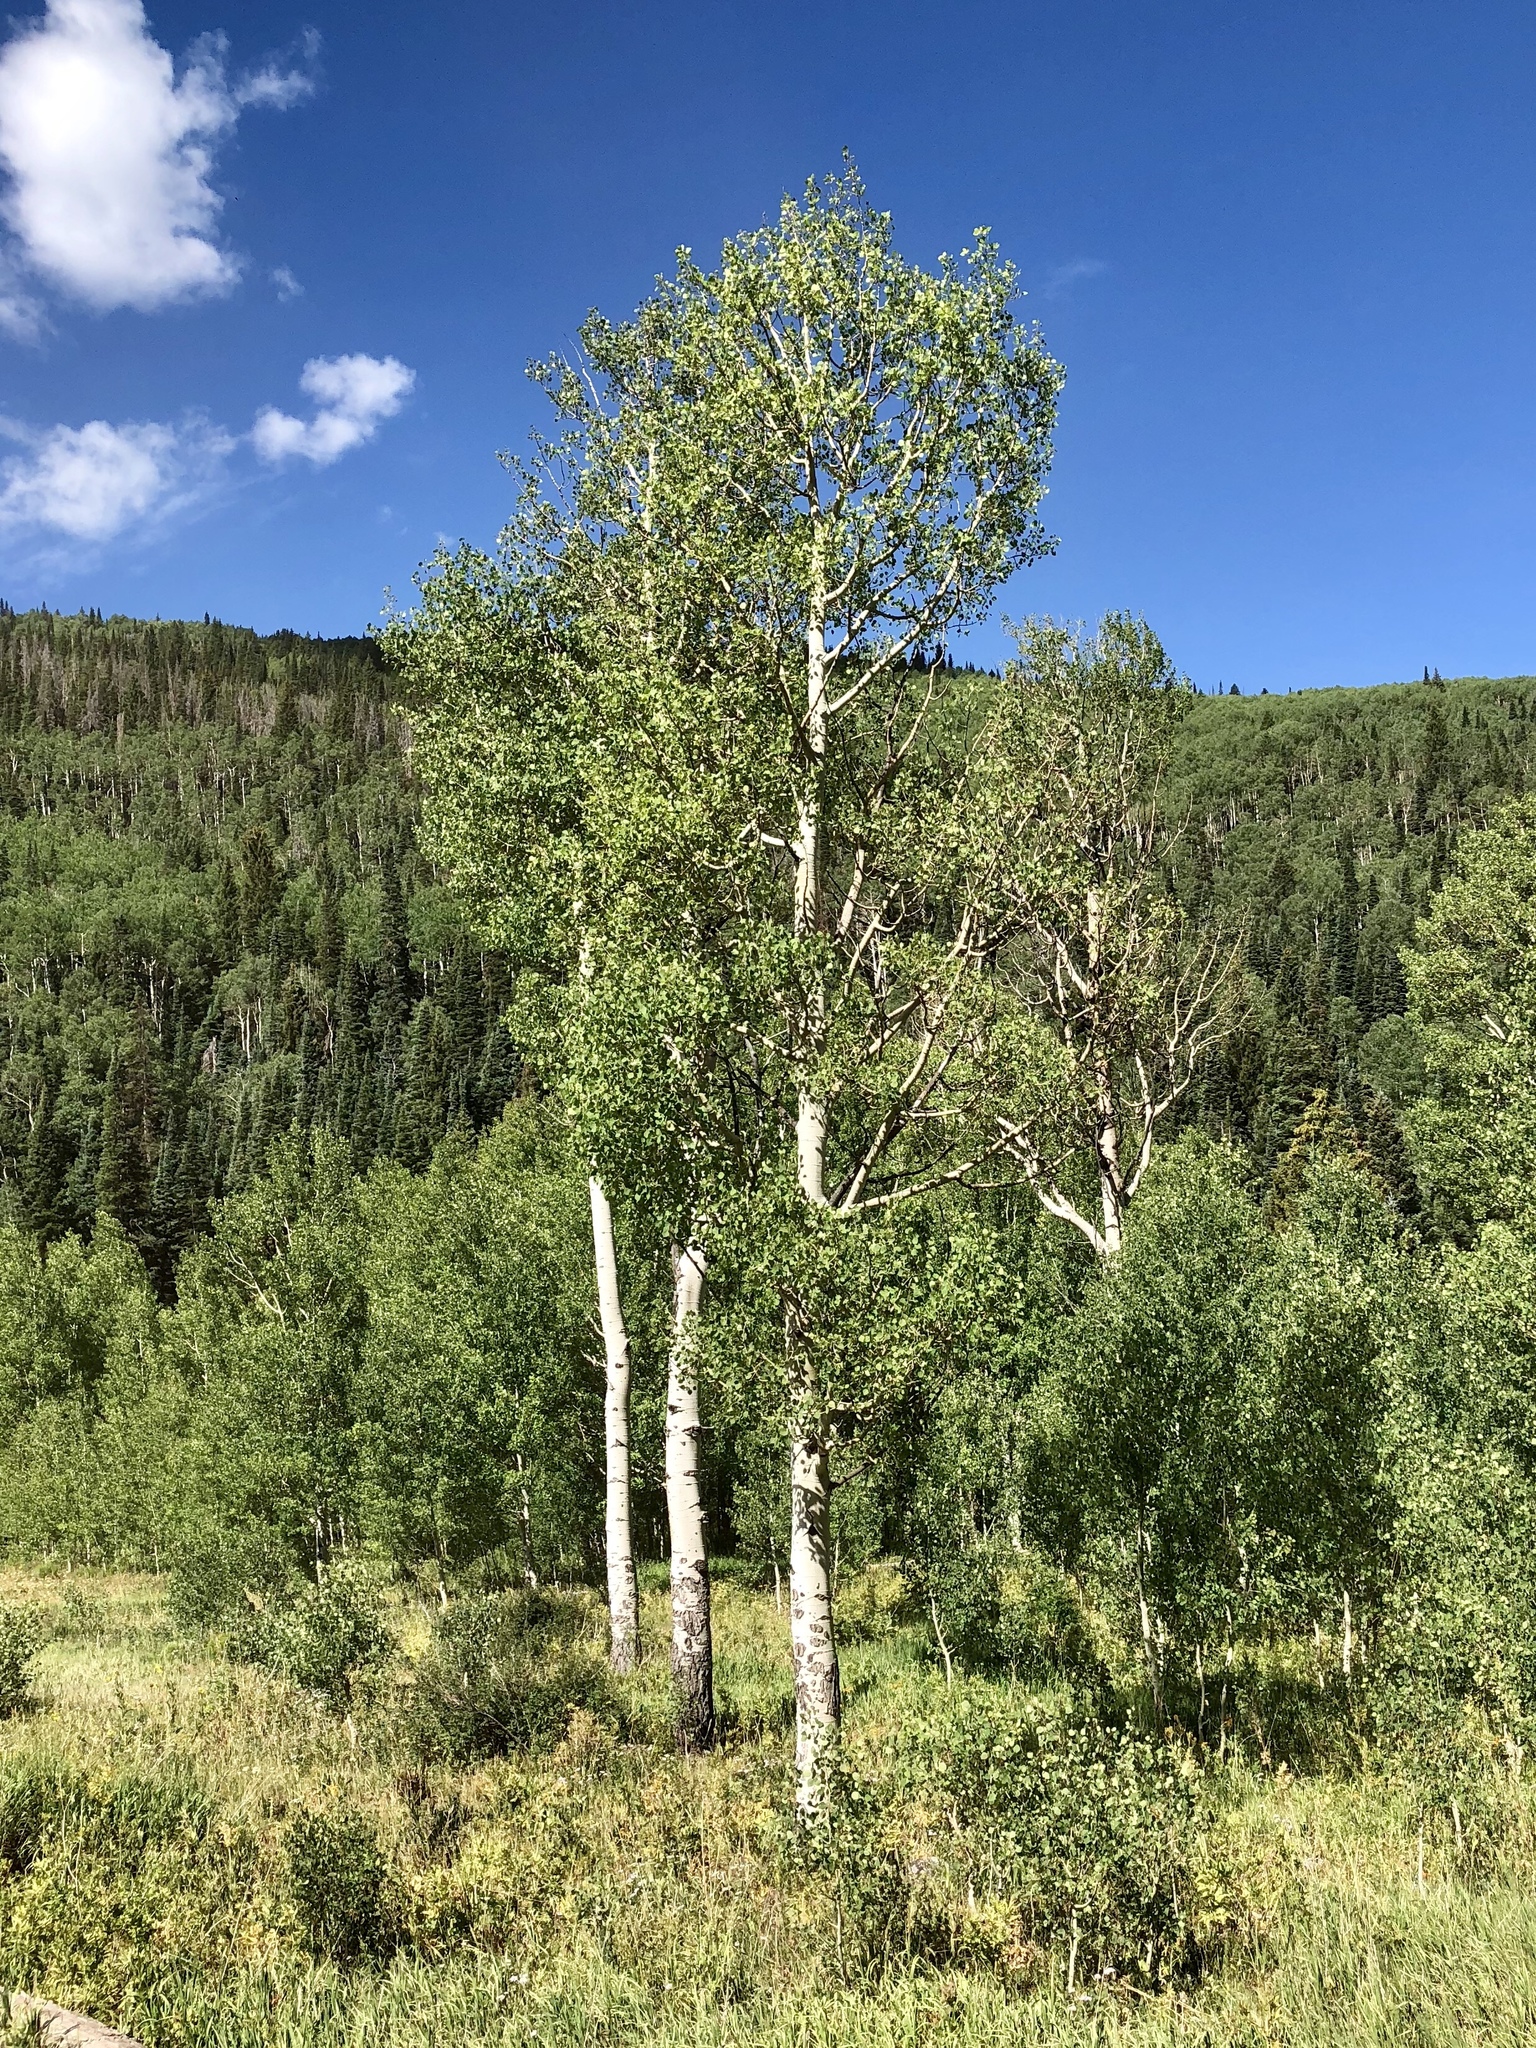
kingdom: Plantae
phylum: Tracheophyta
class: Magnoliopsida
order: Malpighiales
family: Salicaceae
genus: Populus
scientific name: Populus tremuloides
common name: Quaking aspen
